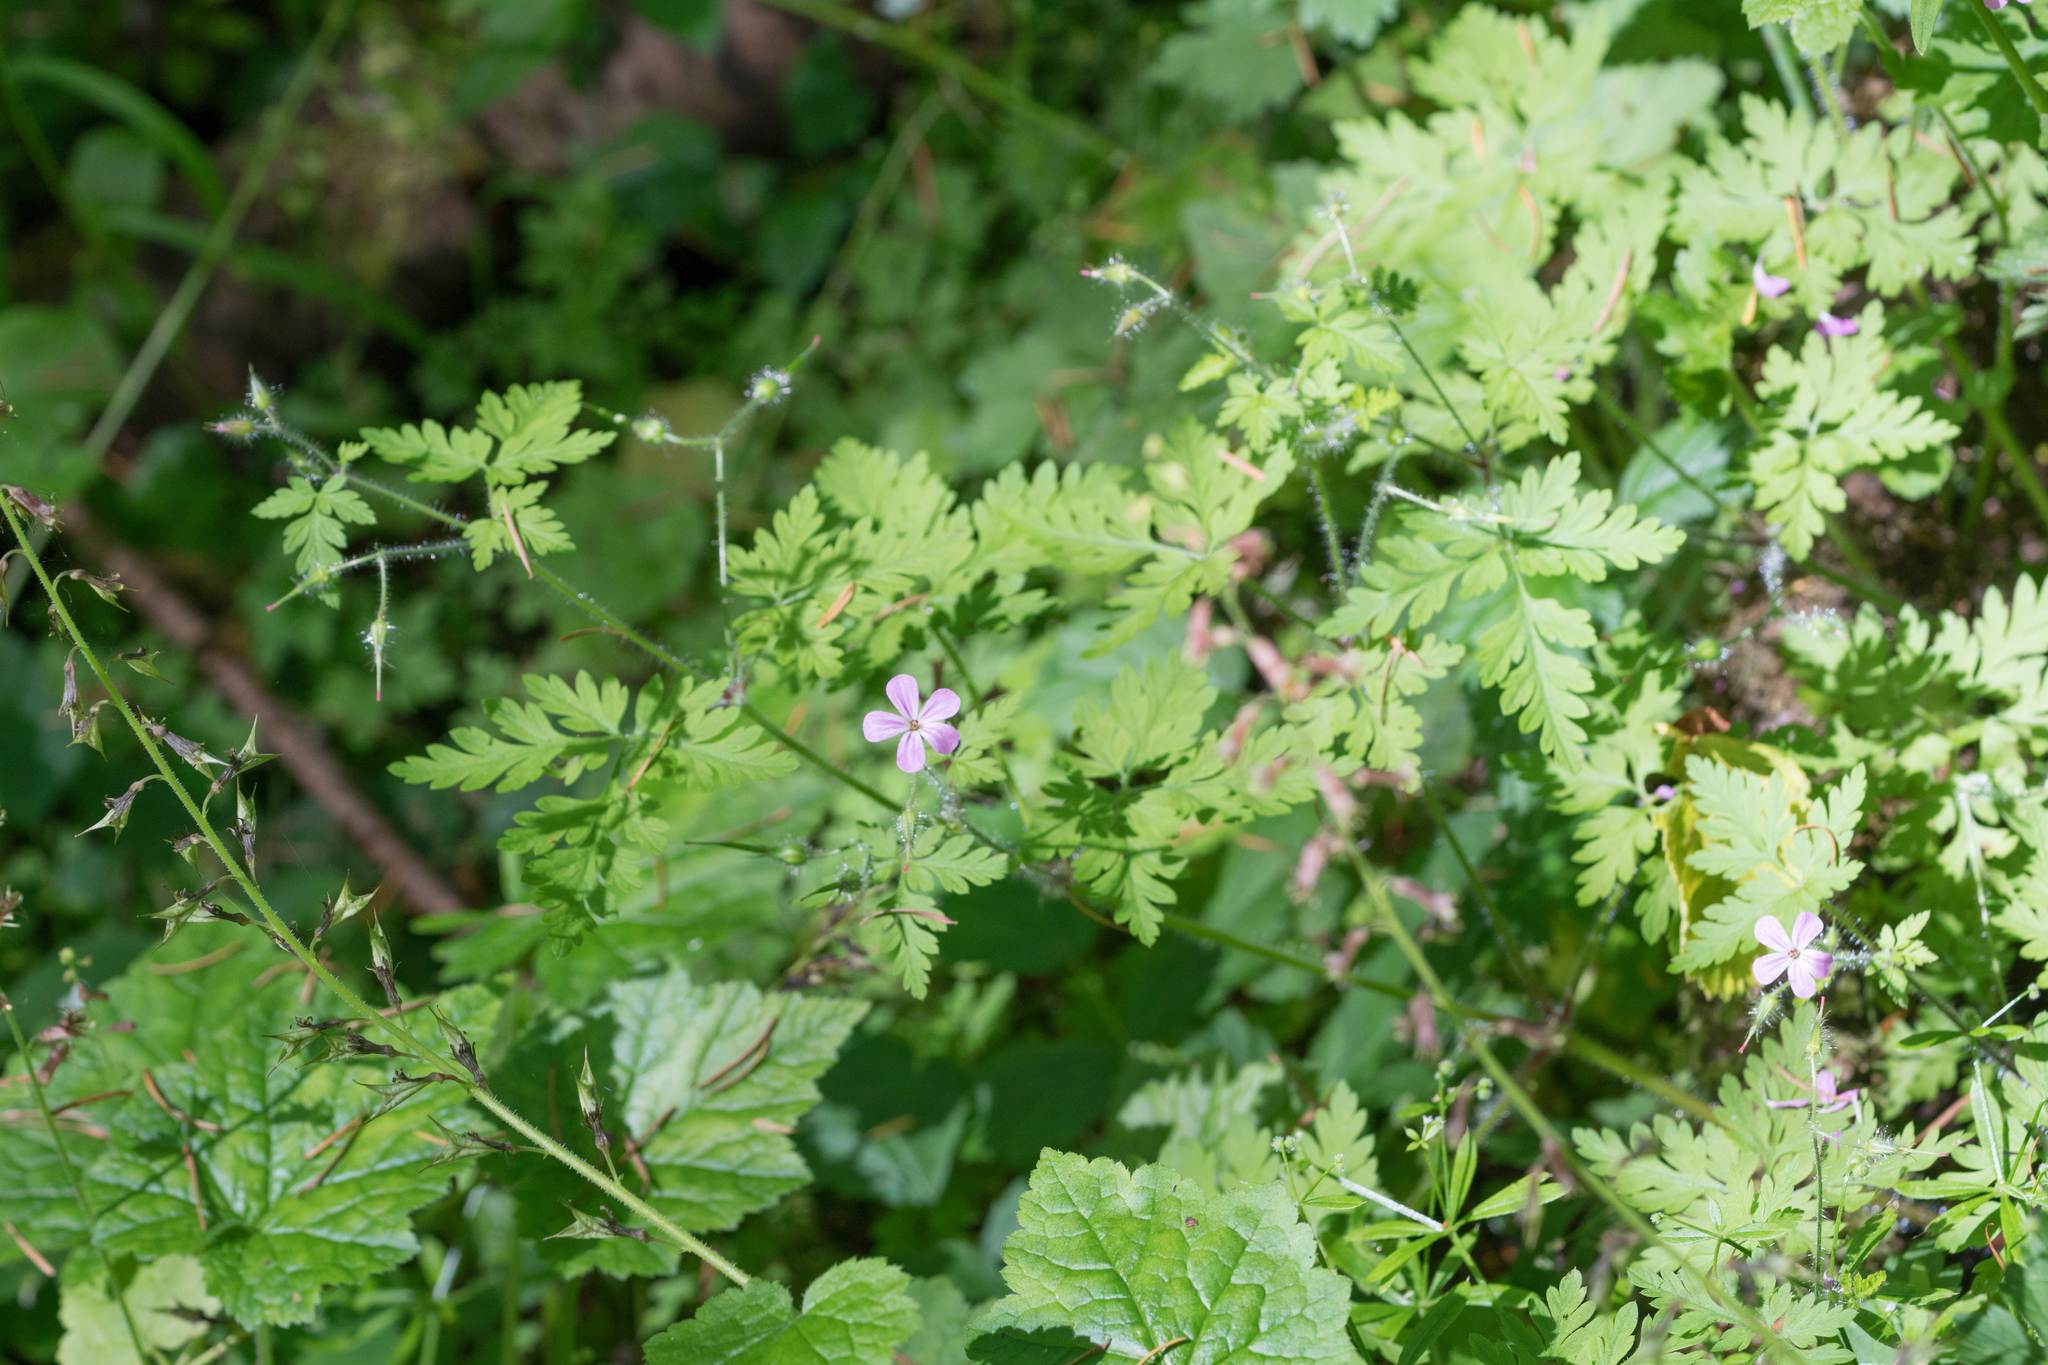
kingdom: Plantae
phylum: Tracheophyta
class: Magnoliopsida
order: Geraniales
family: Geraniaceae
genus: Geranium
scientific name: Geranium robertianum
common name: Herb-robert
